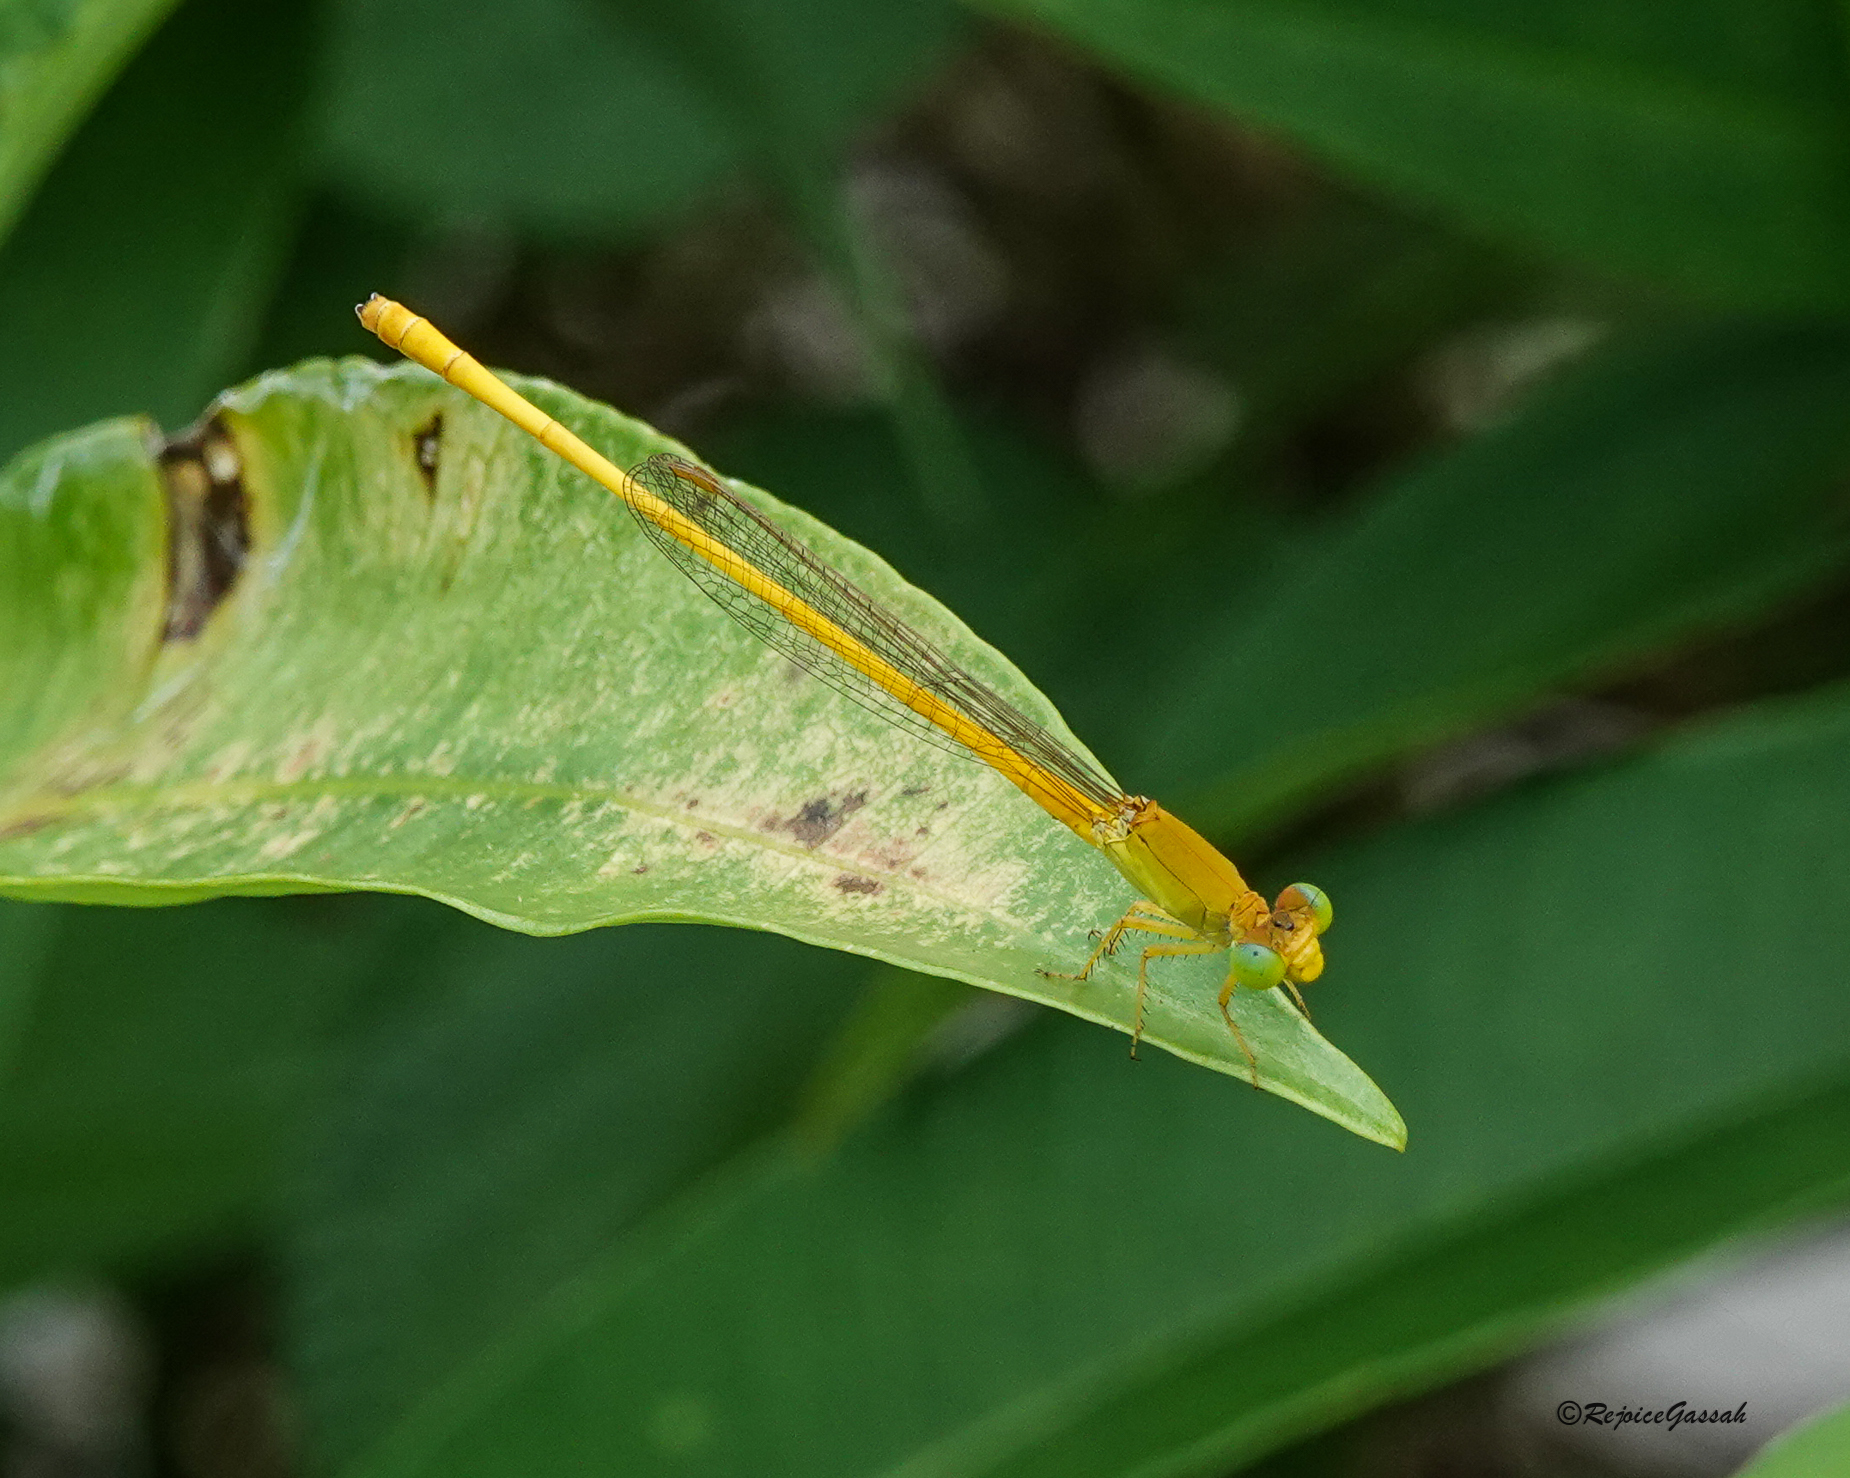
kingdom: Animalia
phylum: Arthropoda
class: Insecta
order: Odonata
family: Coenagrionidae
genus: Ceriagrion
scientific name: Ceriagrion coromandelianum
